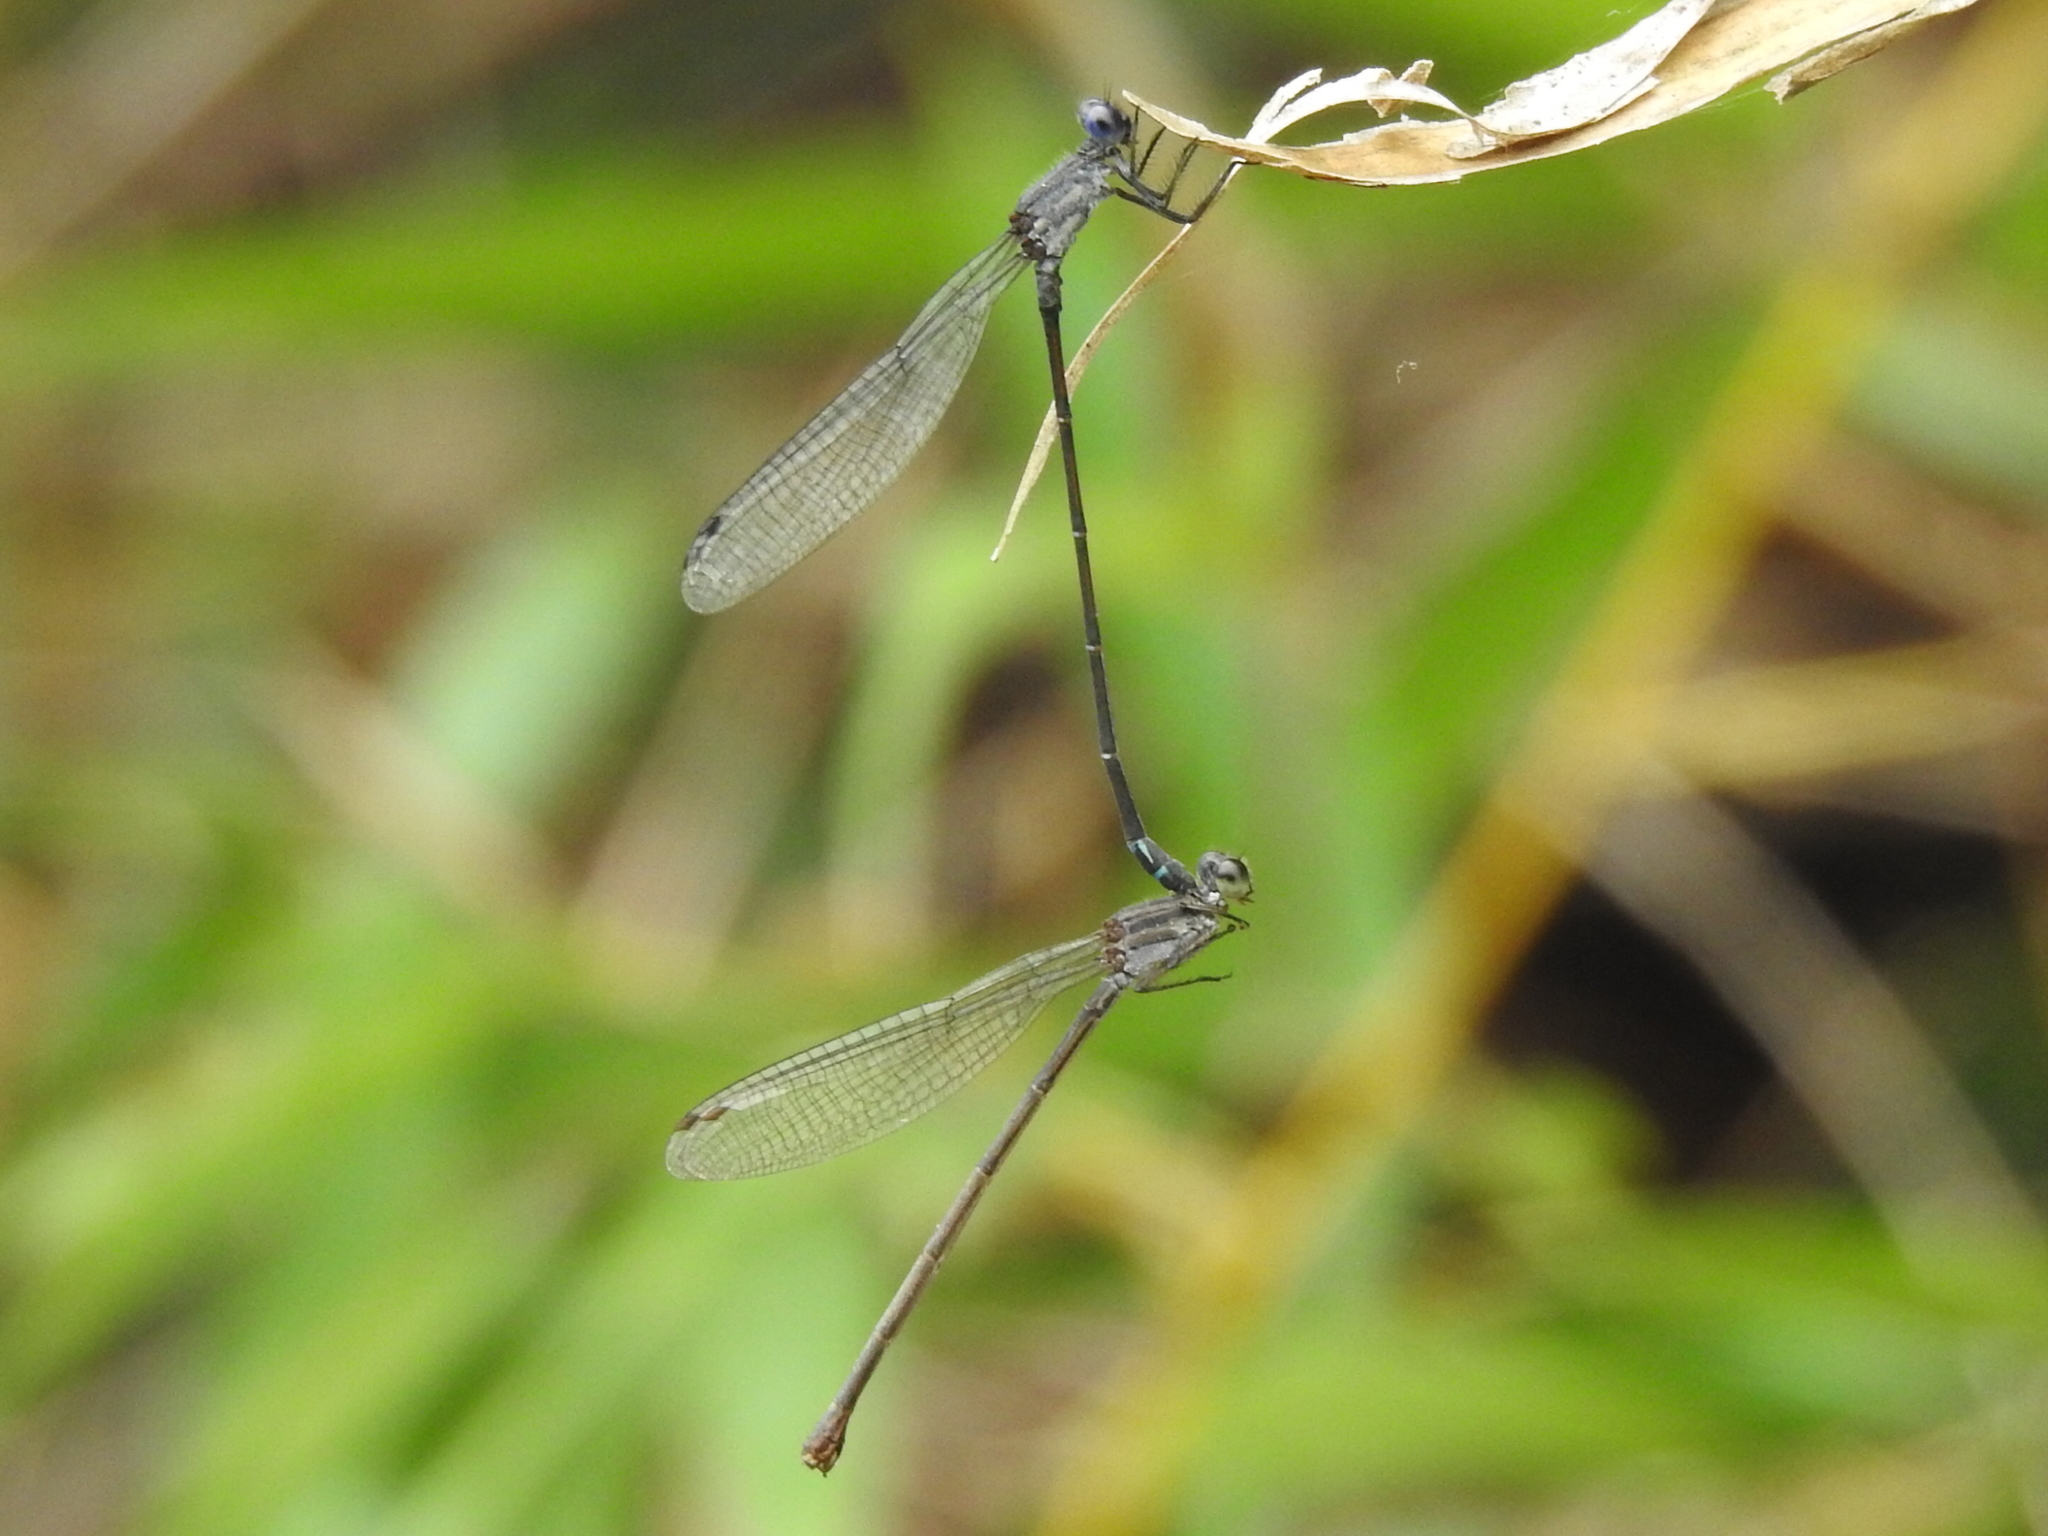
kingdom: Animalia
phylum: Arthropoda
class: Insecta
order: Odonata
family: Coenagrionidae
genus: Argia
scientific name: Argia translata
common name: Dusky dancer
